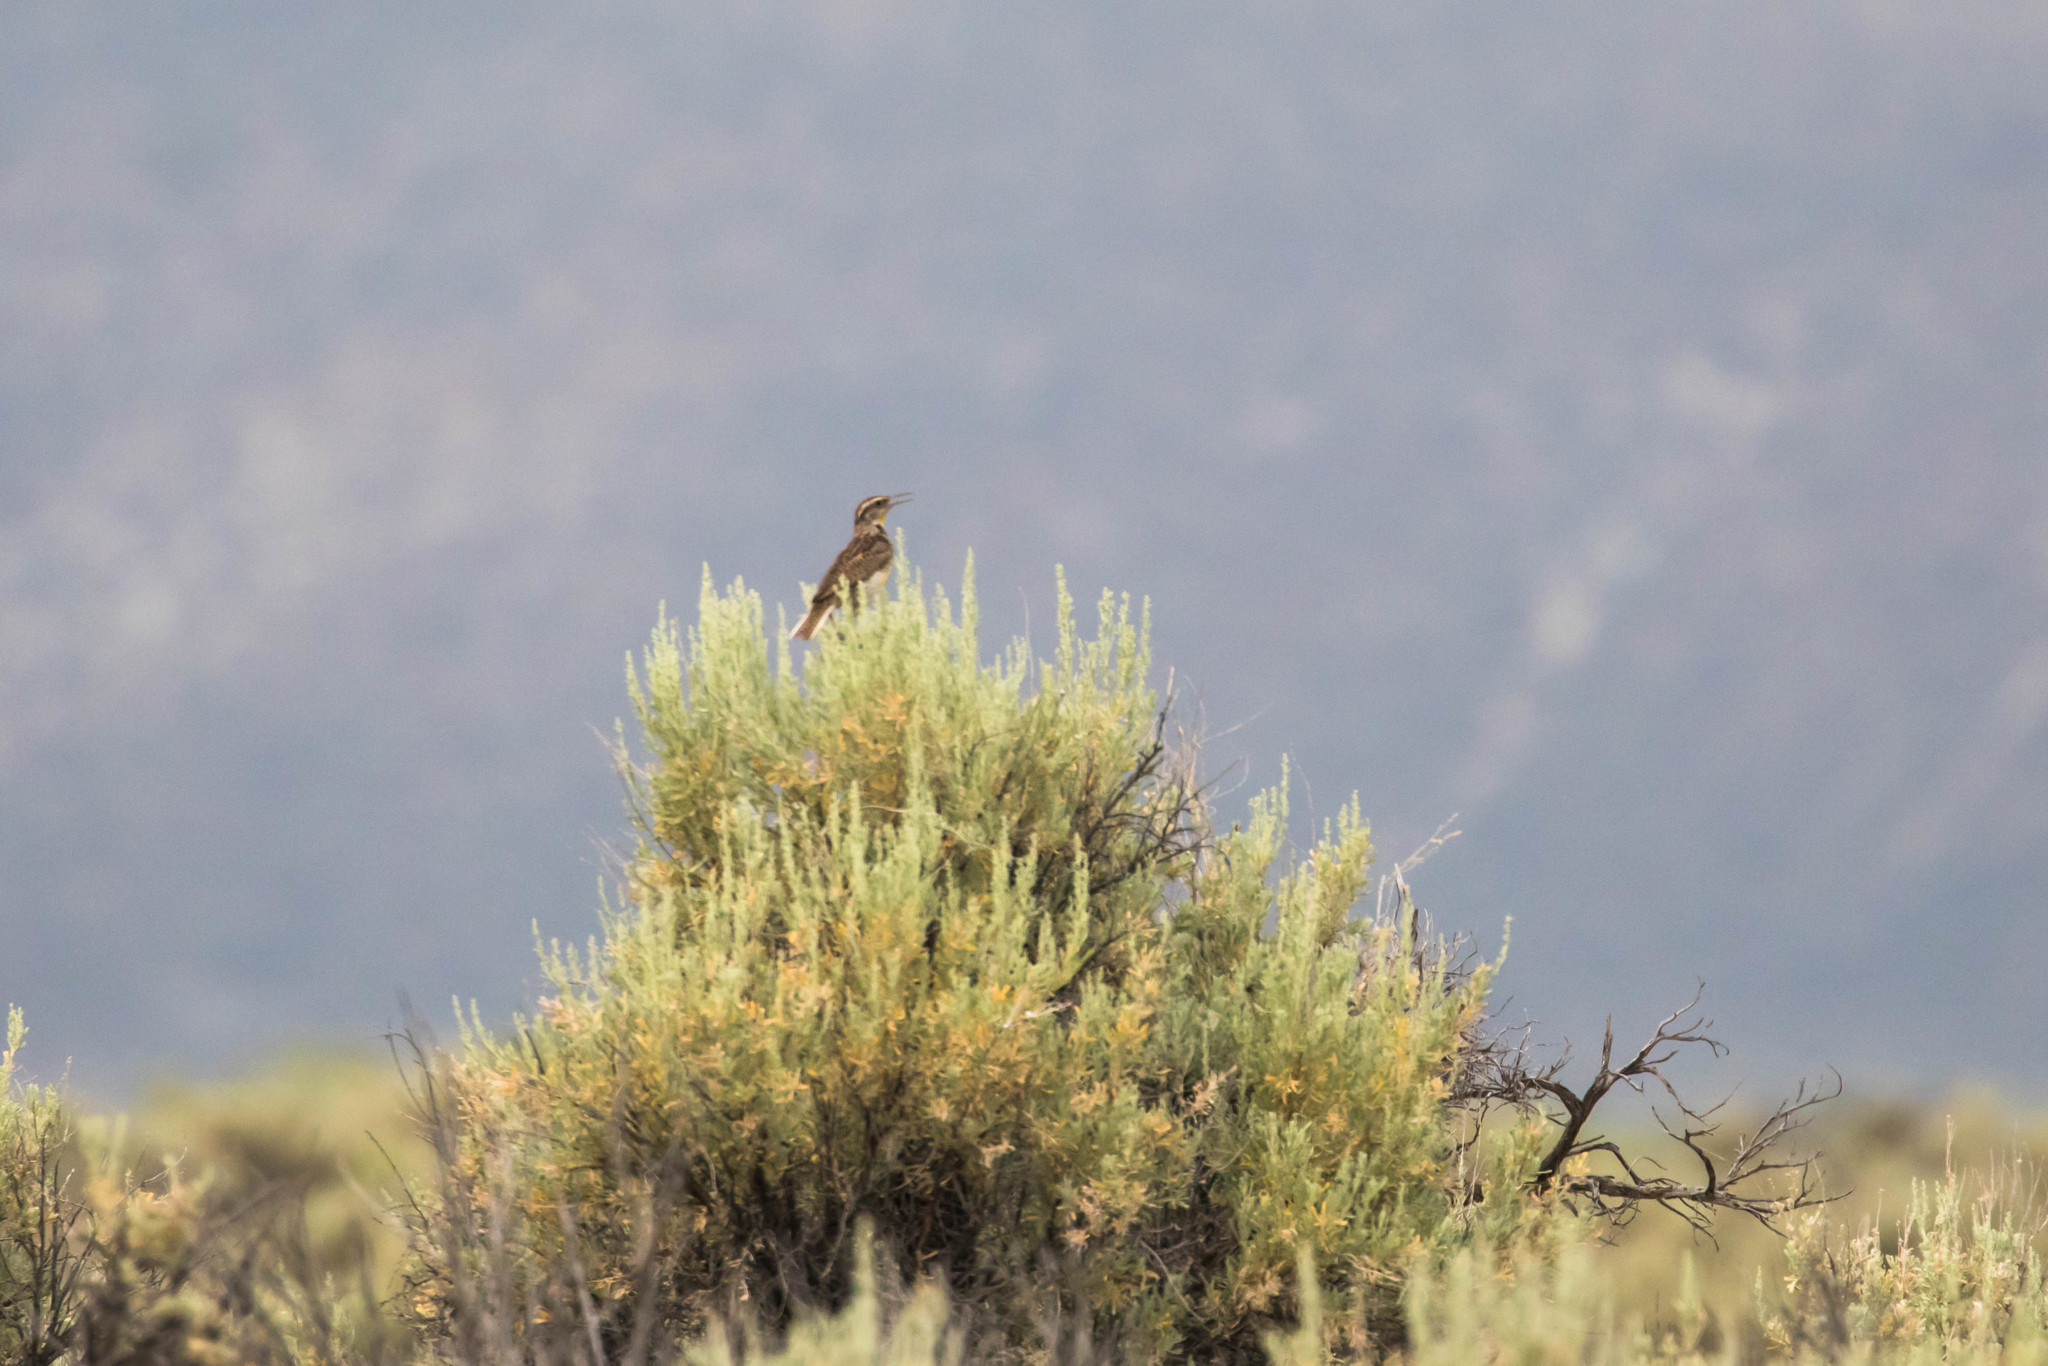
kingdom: Animalia
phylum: Chordata
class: Aves
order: Passeriformes
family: Icteridae
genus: Sturnella
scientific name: Sturnella neglecta
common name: Western meadowlark
